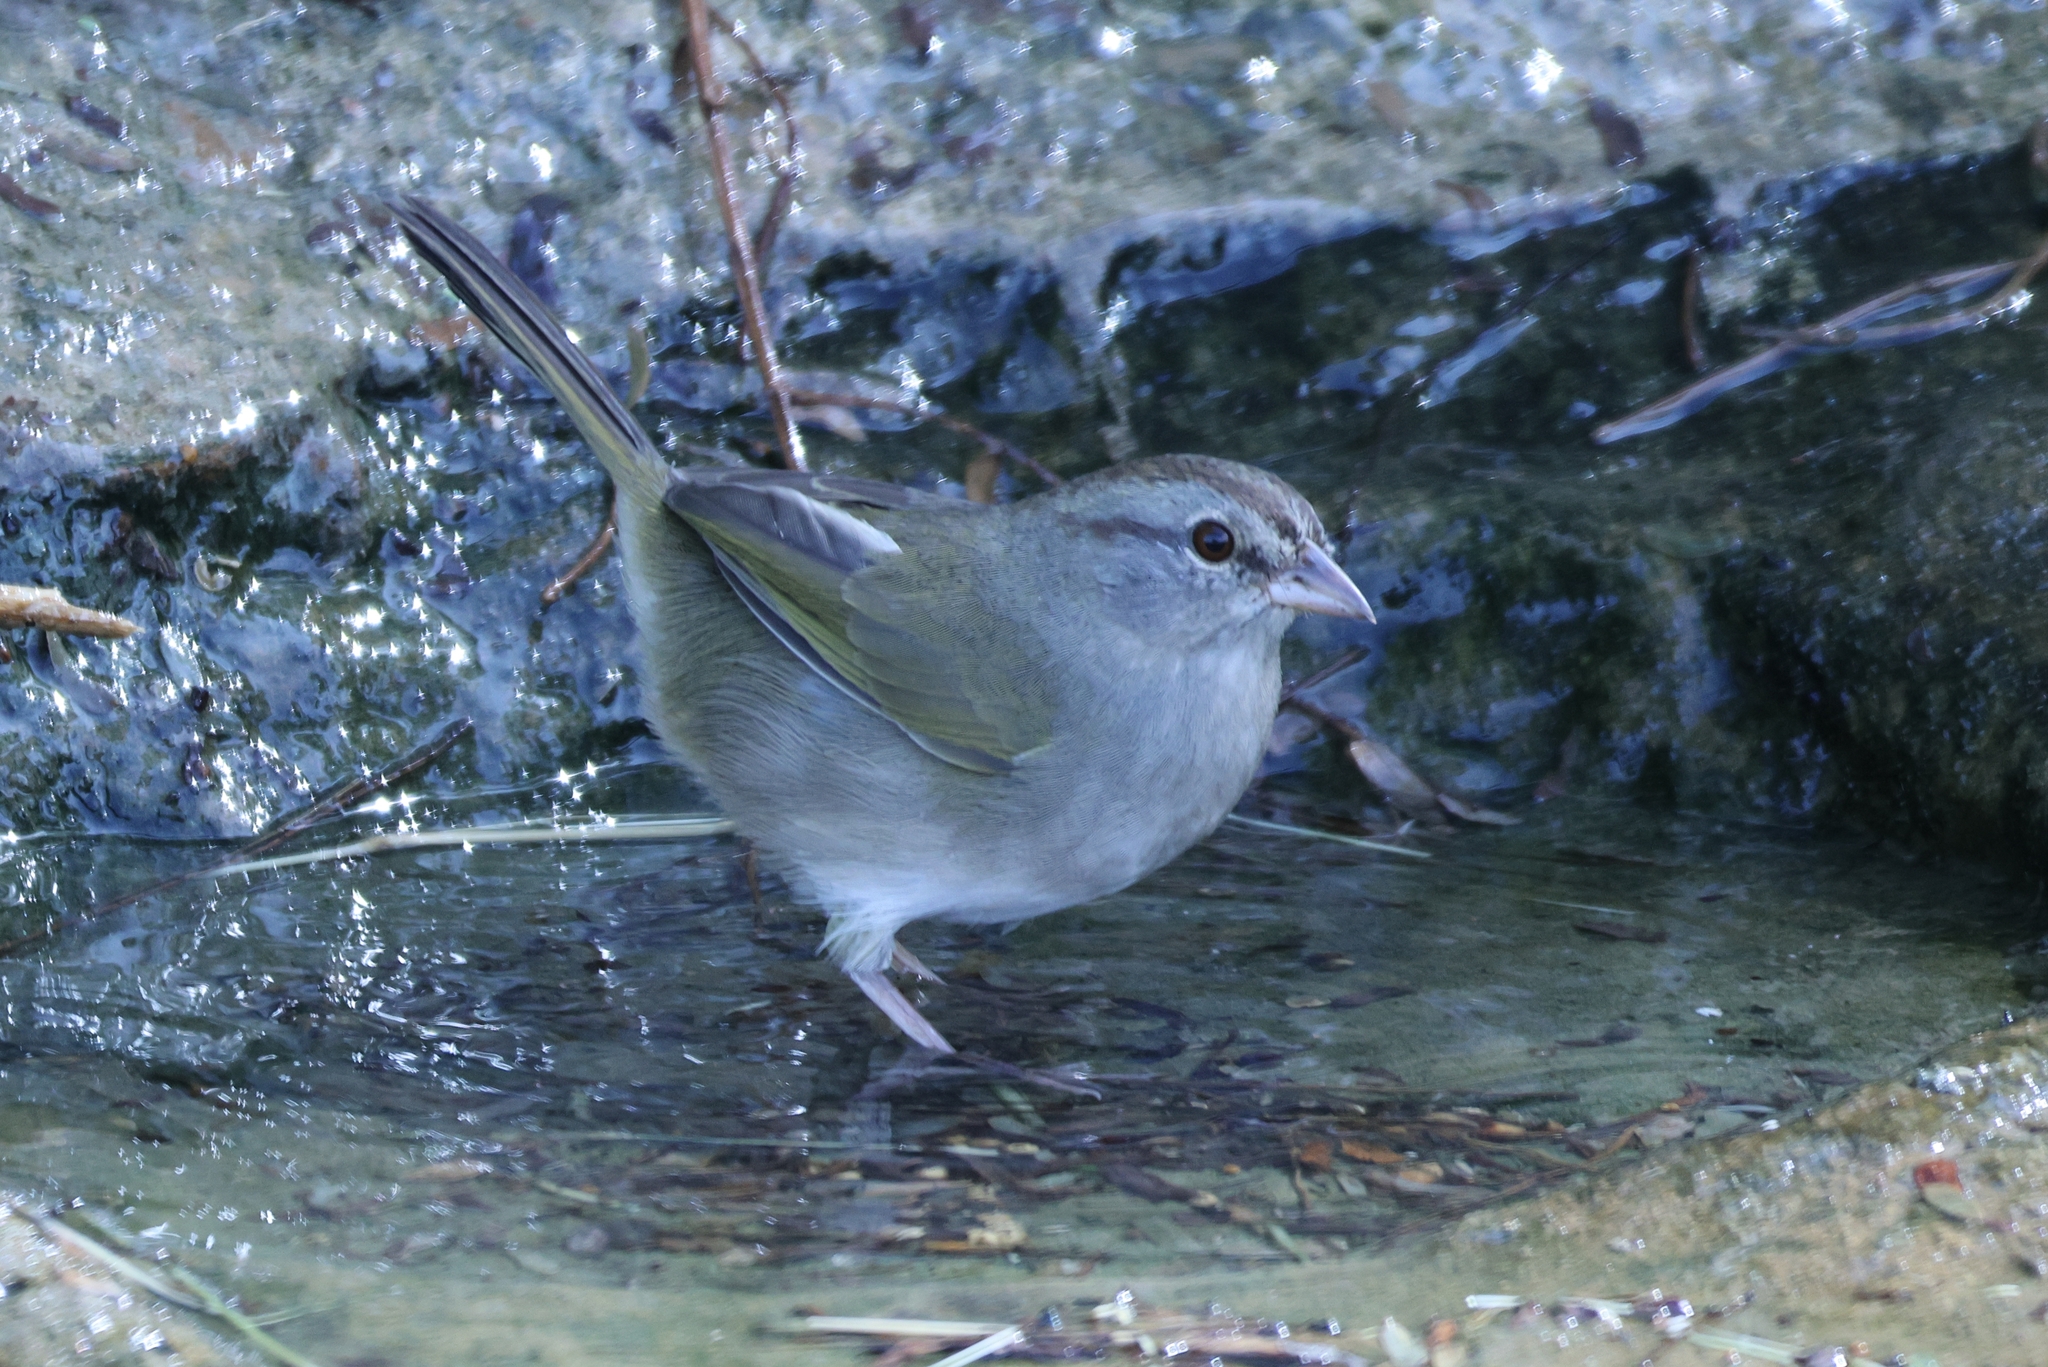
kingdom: Animalia
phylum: Chordata
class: Aves
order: Passeriformes
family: Passerellidae
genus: Arremonops
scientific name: Arremonops rufivirgatus
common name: Olive sparrow
